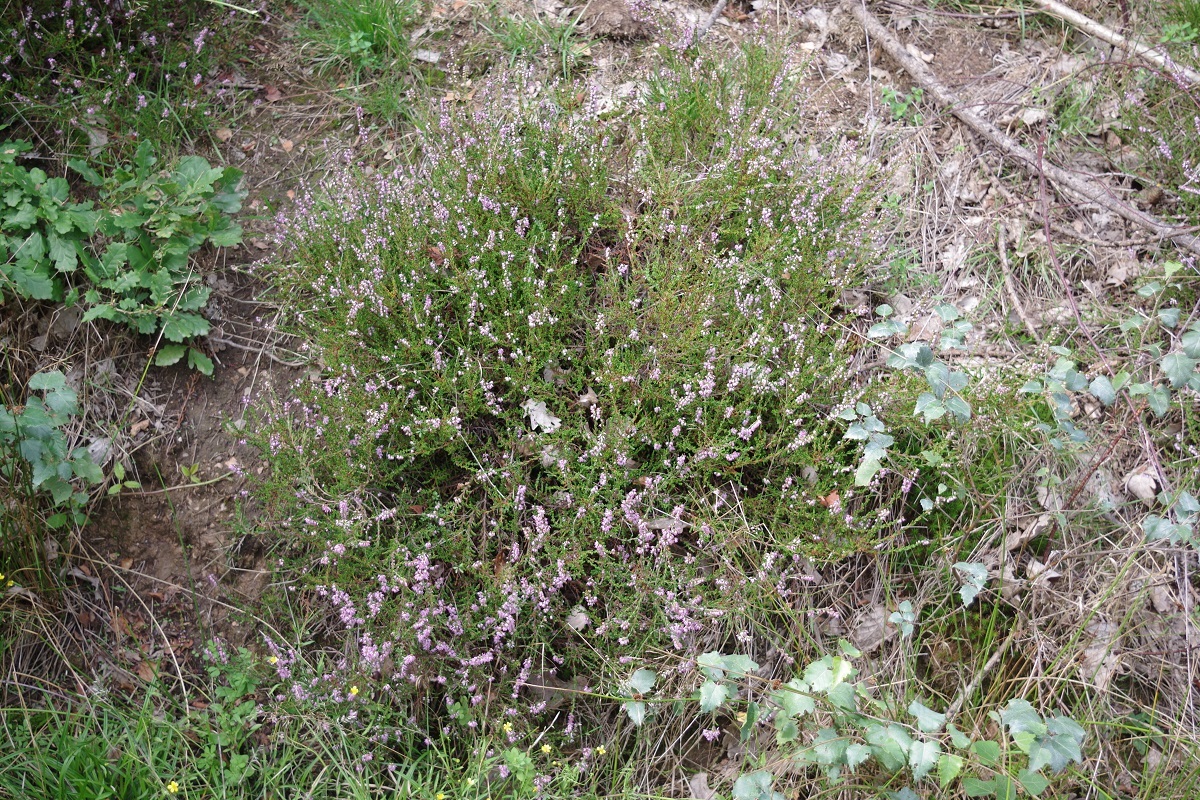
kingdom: Plantae
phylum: Tracheophyta
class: Magnoliopsida
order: Ericales
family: Ericaceae
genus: Calluna
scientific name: Calluna vulgaris
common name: Heather
